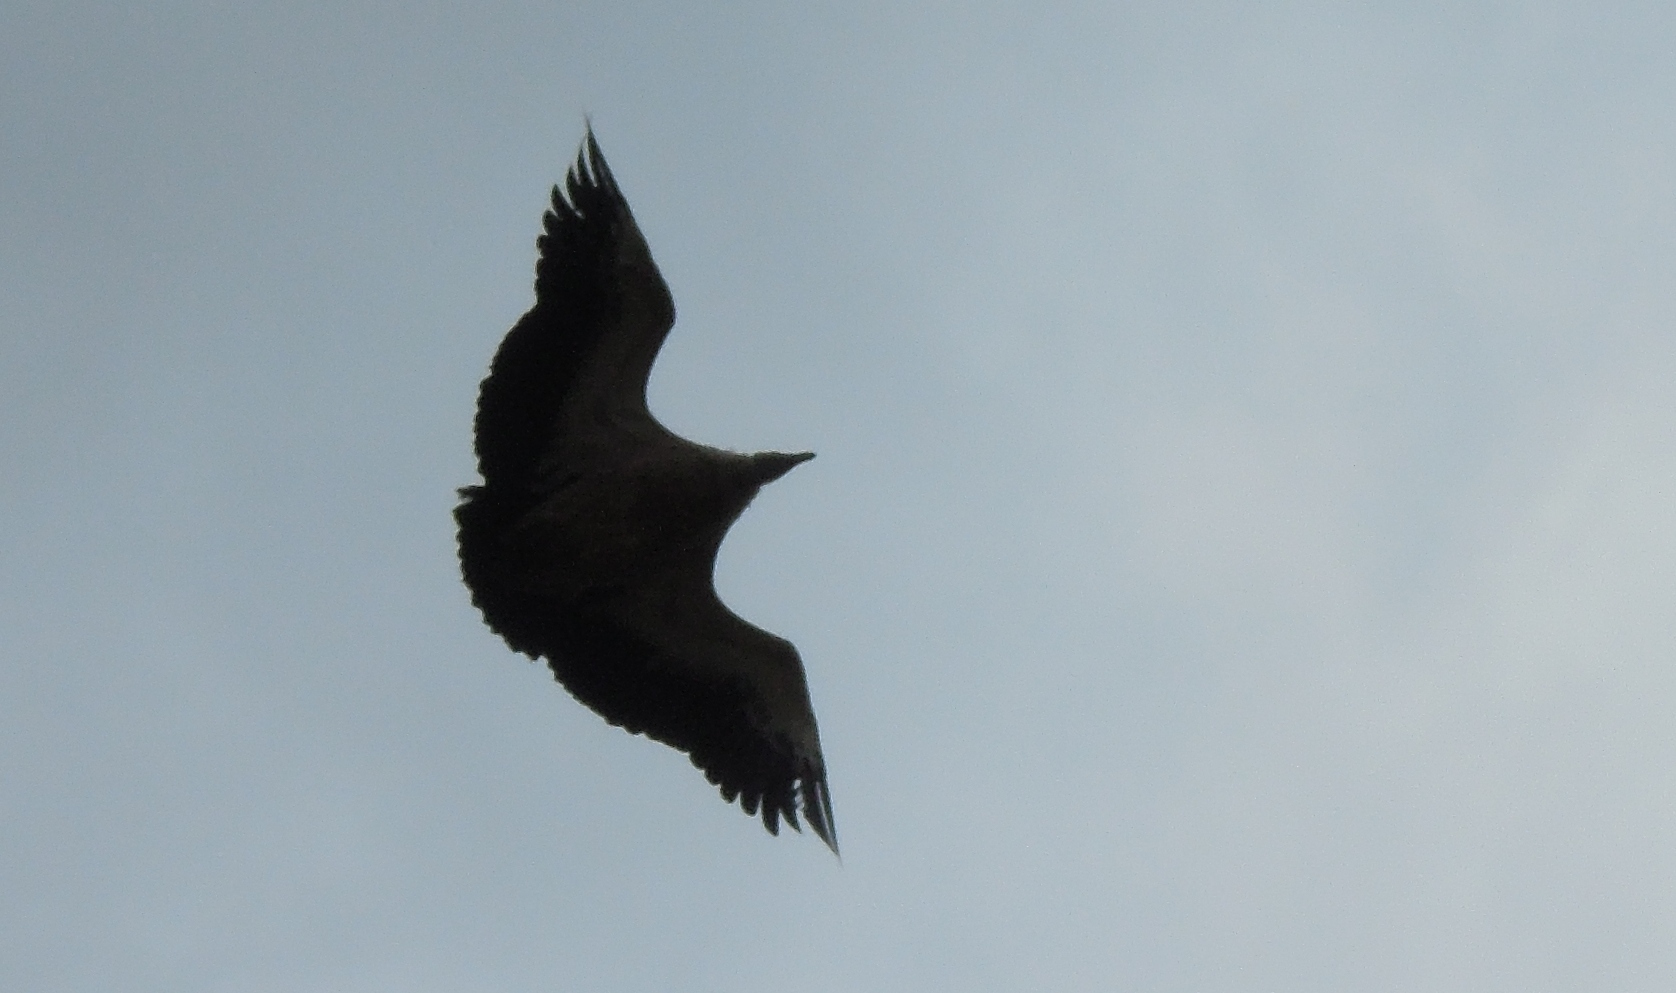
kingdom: Animalia
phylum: Chordata
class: Aves
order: Accipitriformes
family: Accipitridae
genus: Gyps
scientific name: Gyps himalayensis
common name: Himalayan griffon
